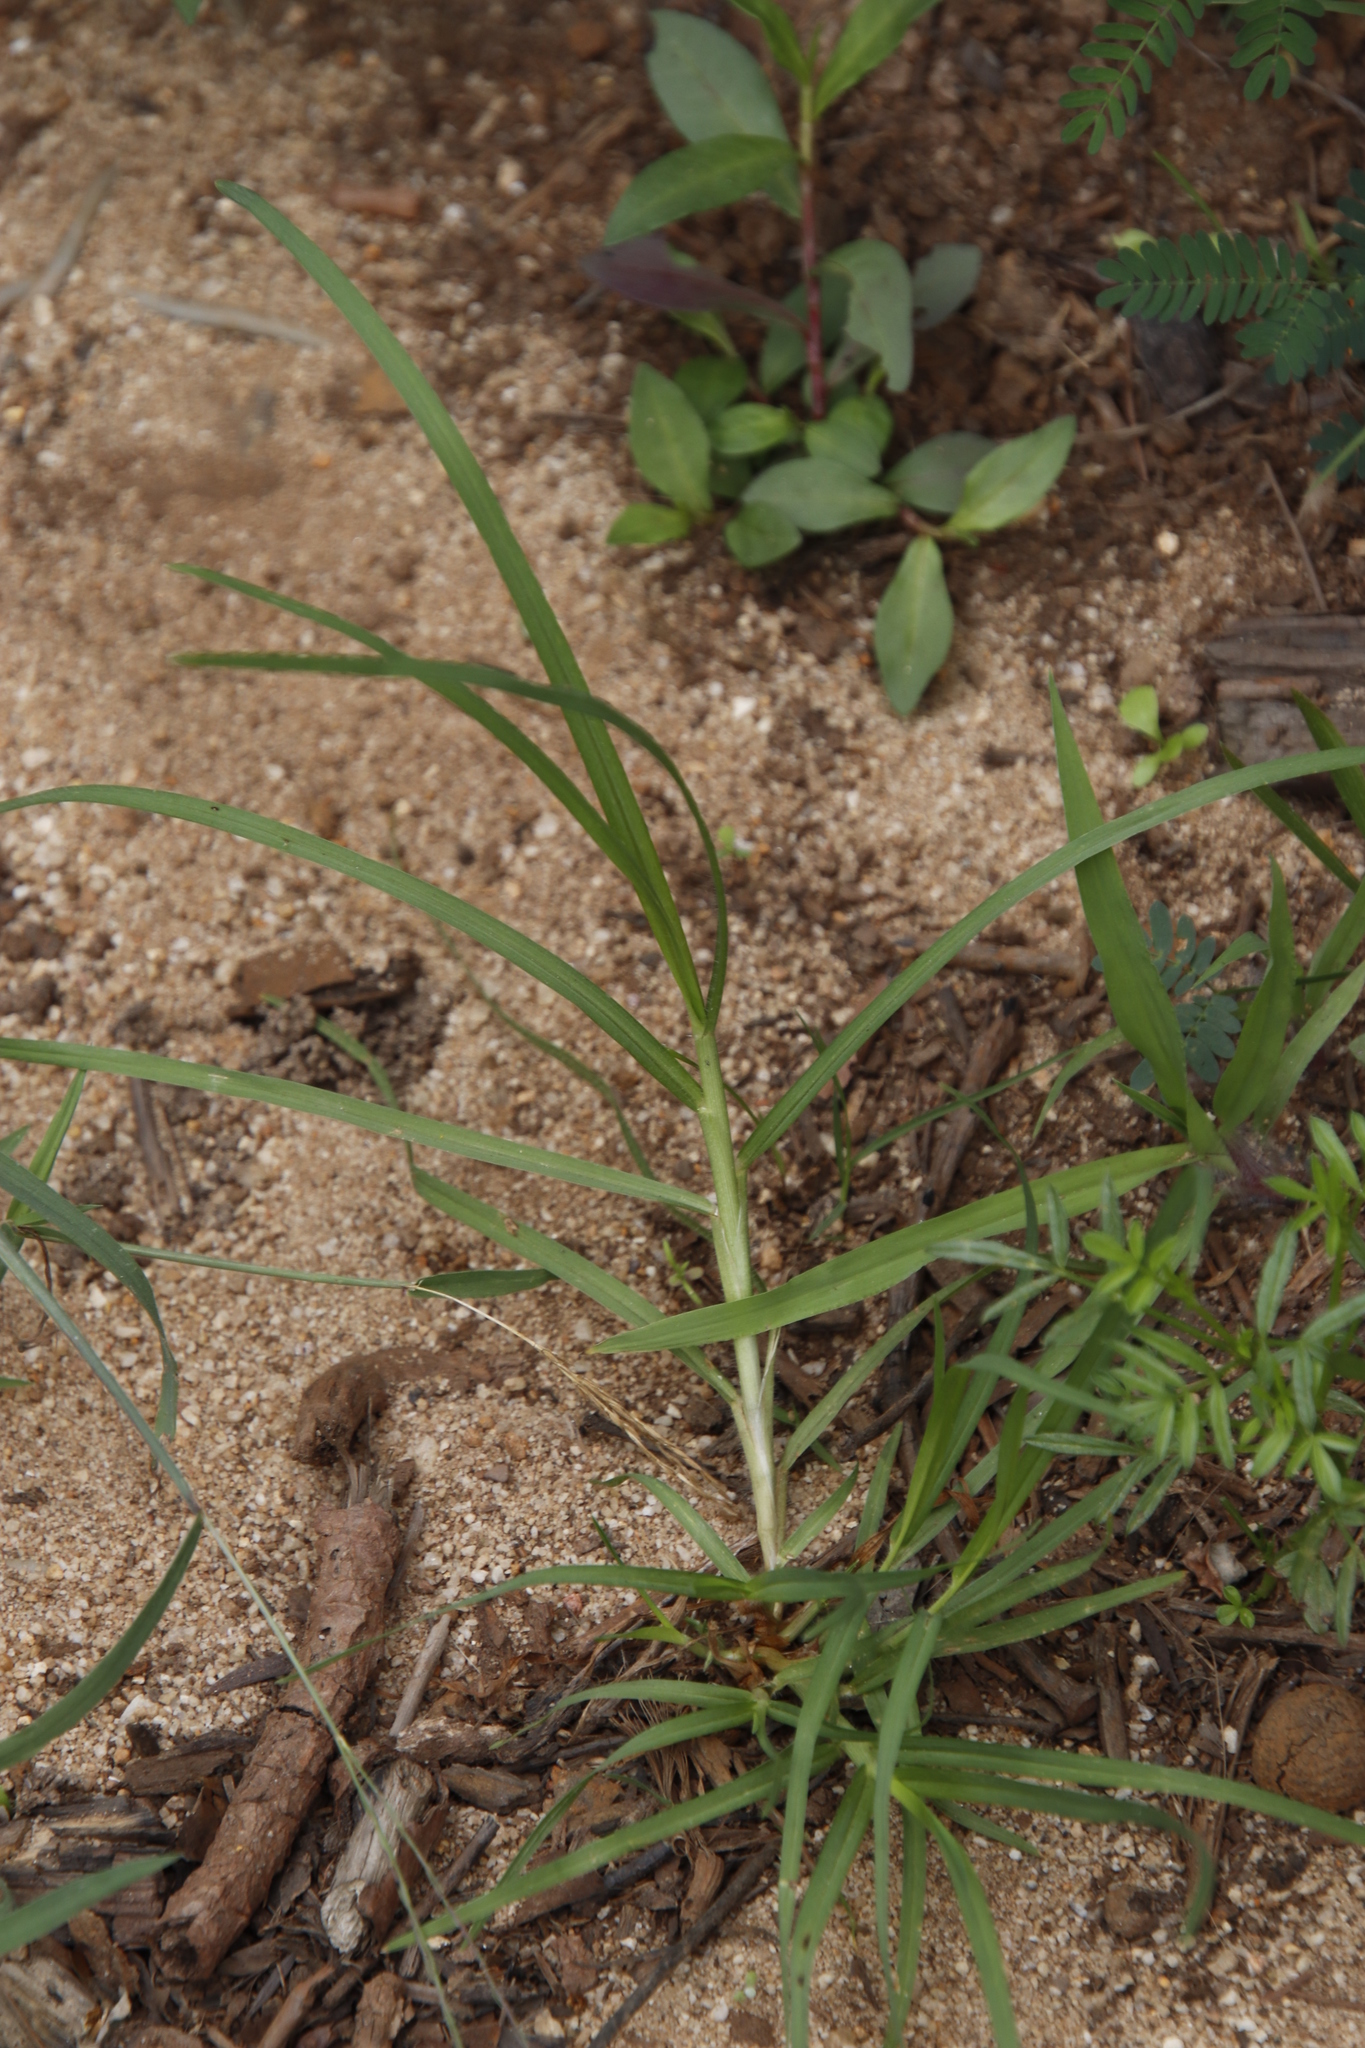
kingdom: Plantae
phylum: Tracheophyta
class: Liliopsida
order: Poales
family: Poaceae
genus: Cenchrus
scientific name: Cenchrus clandestinus
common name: Kikuyugrass
